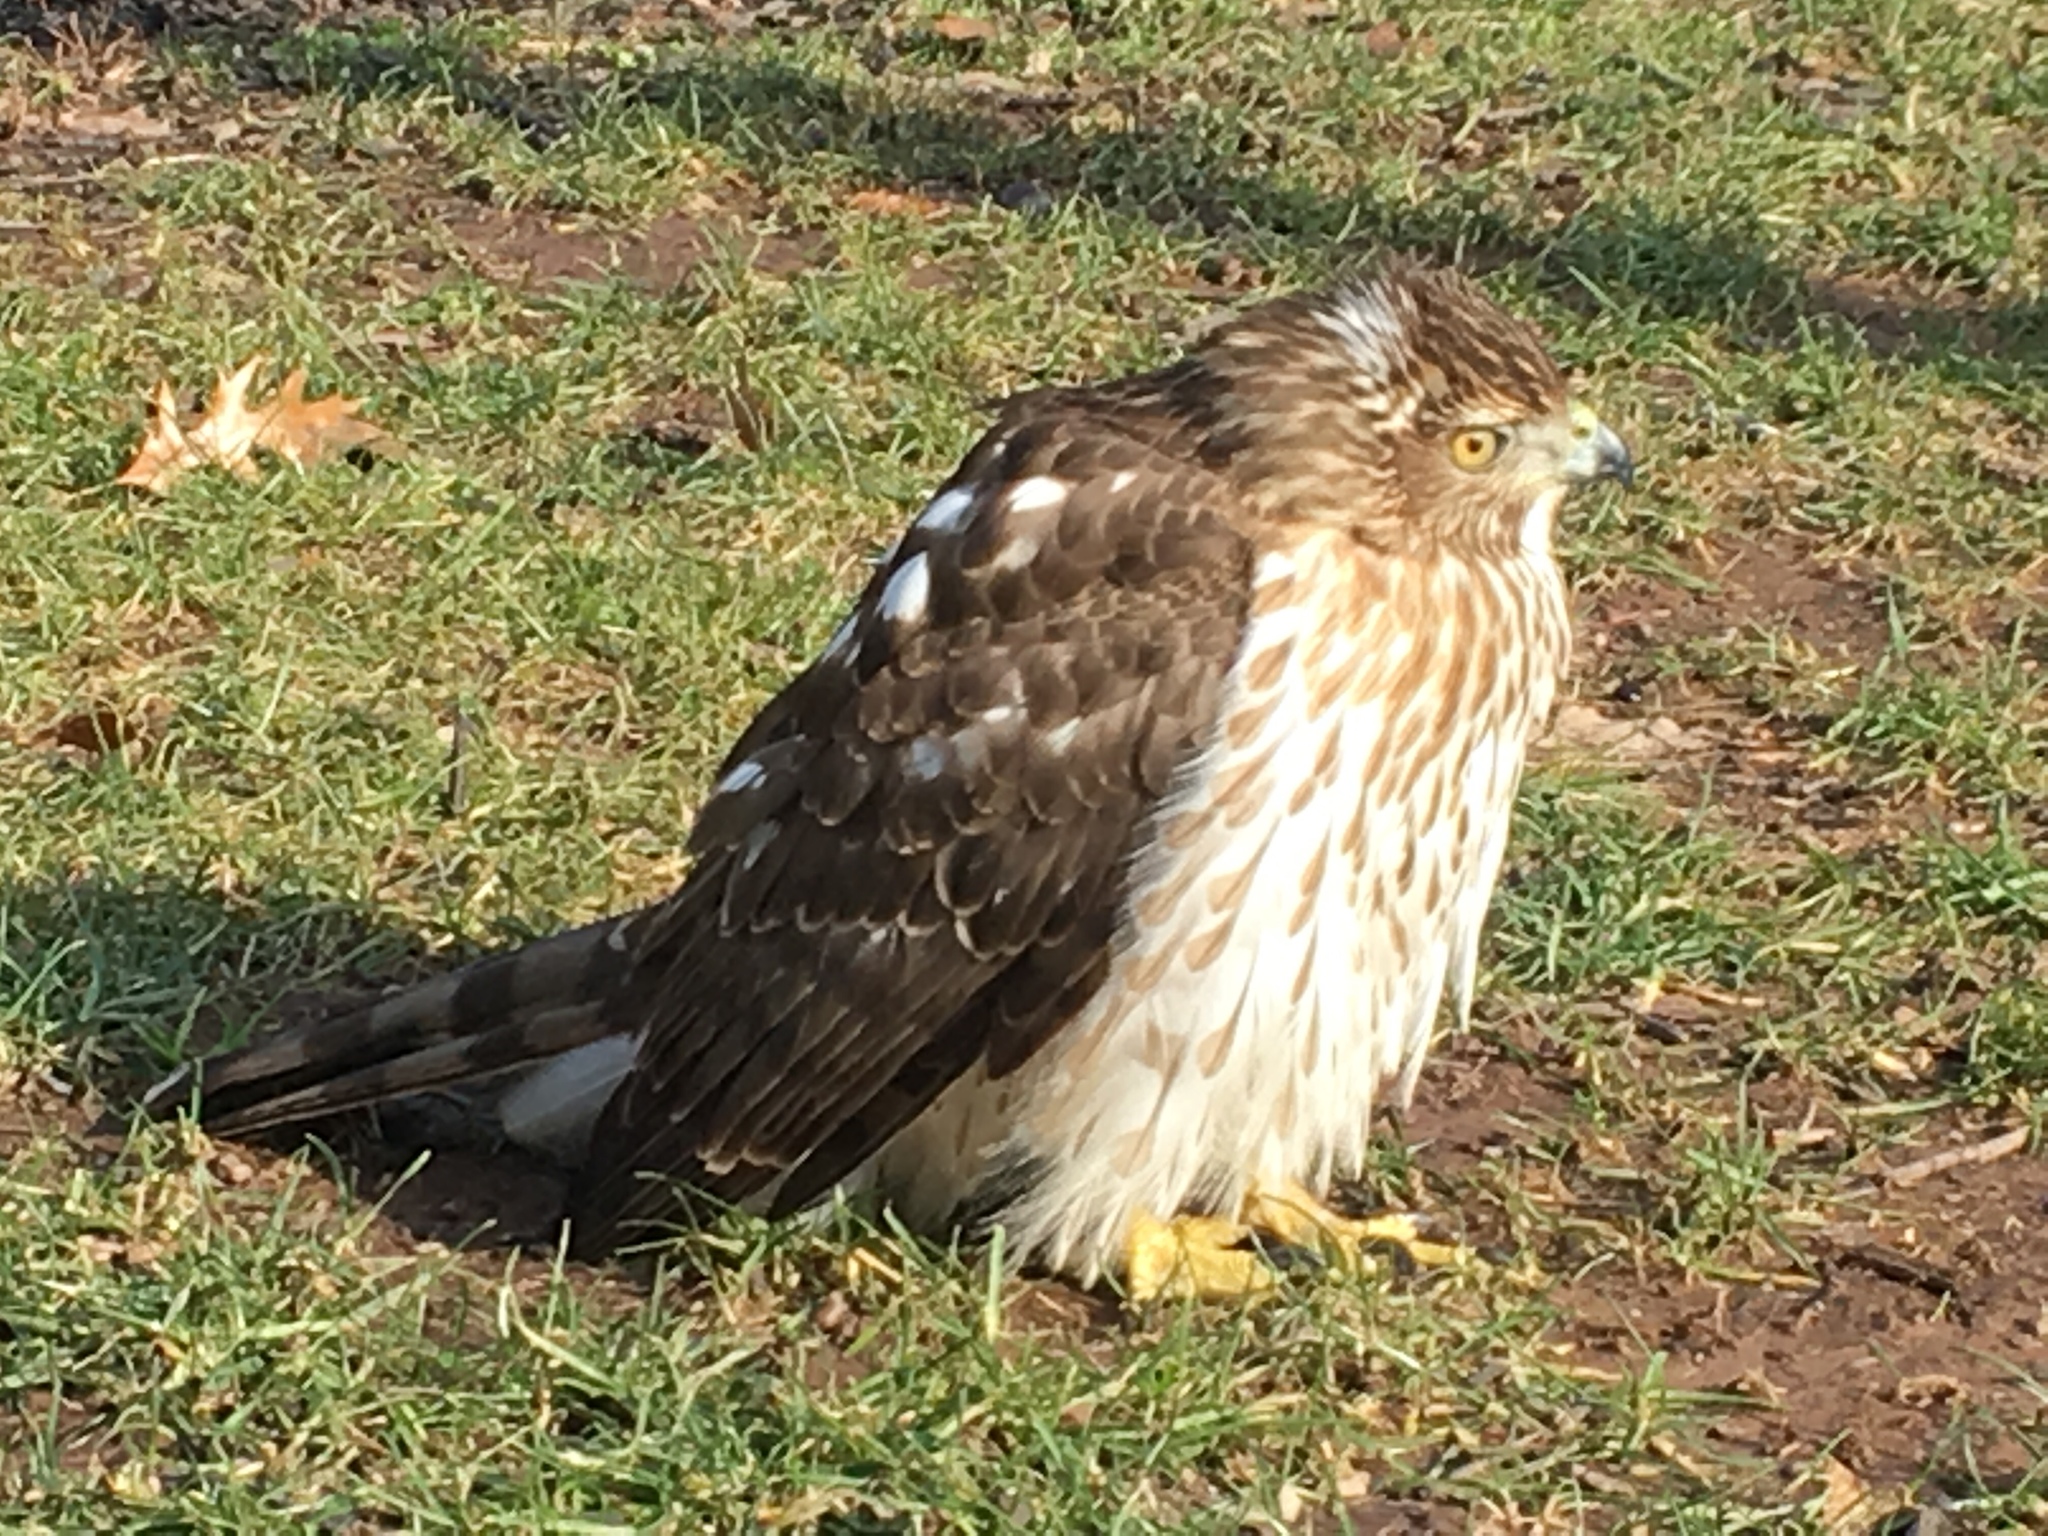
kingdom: Animalia
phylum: Chordata
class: Aves
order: Accipitriformes
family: Accipitridae
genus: Accipiter
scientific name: Accipiter cooperii
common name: Cooper's hawk
